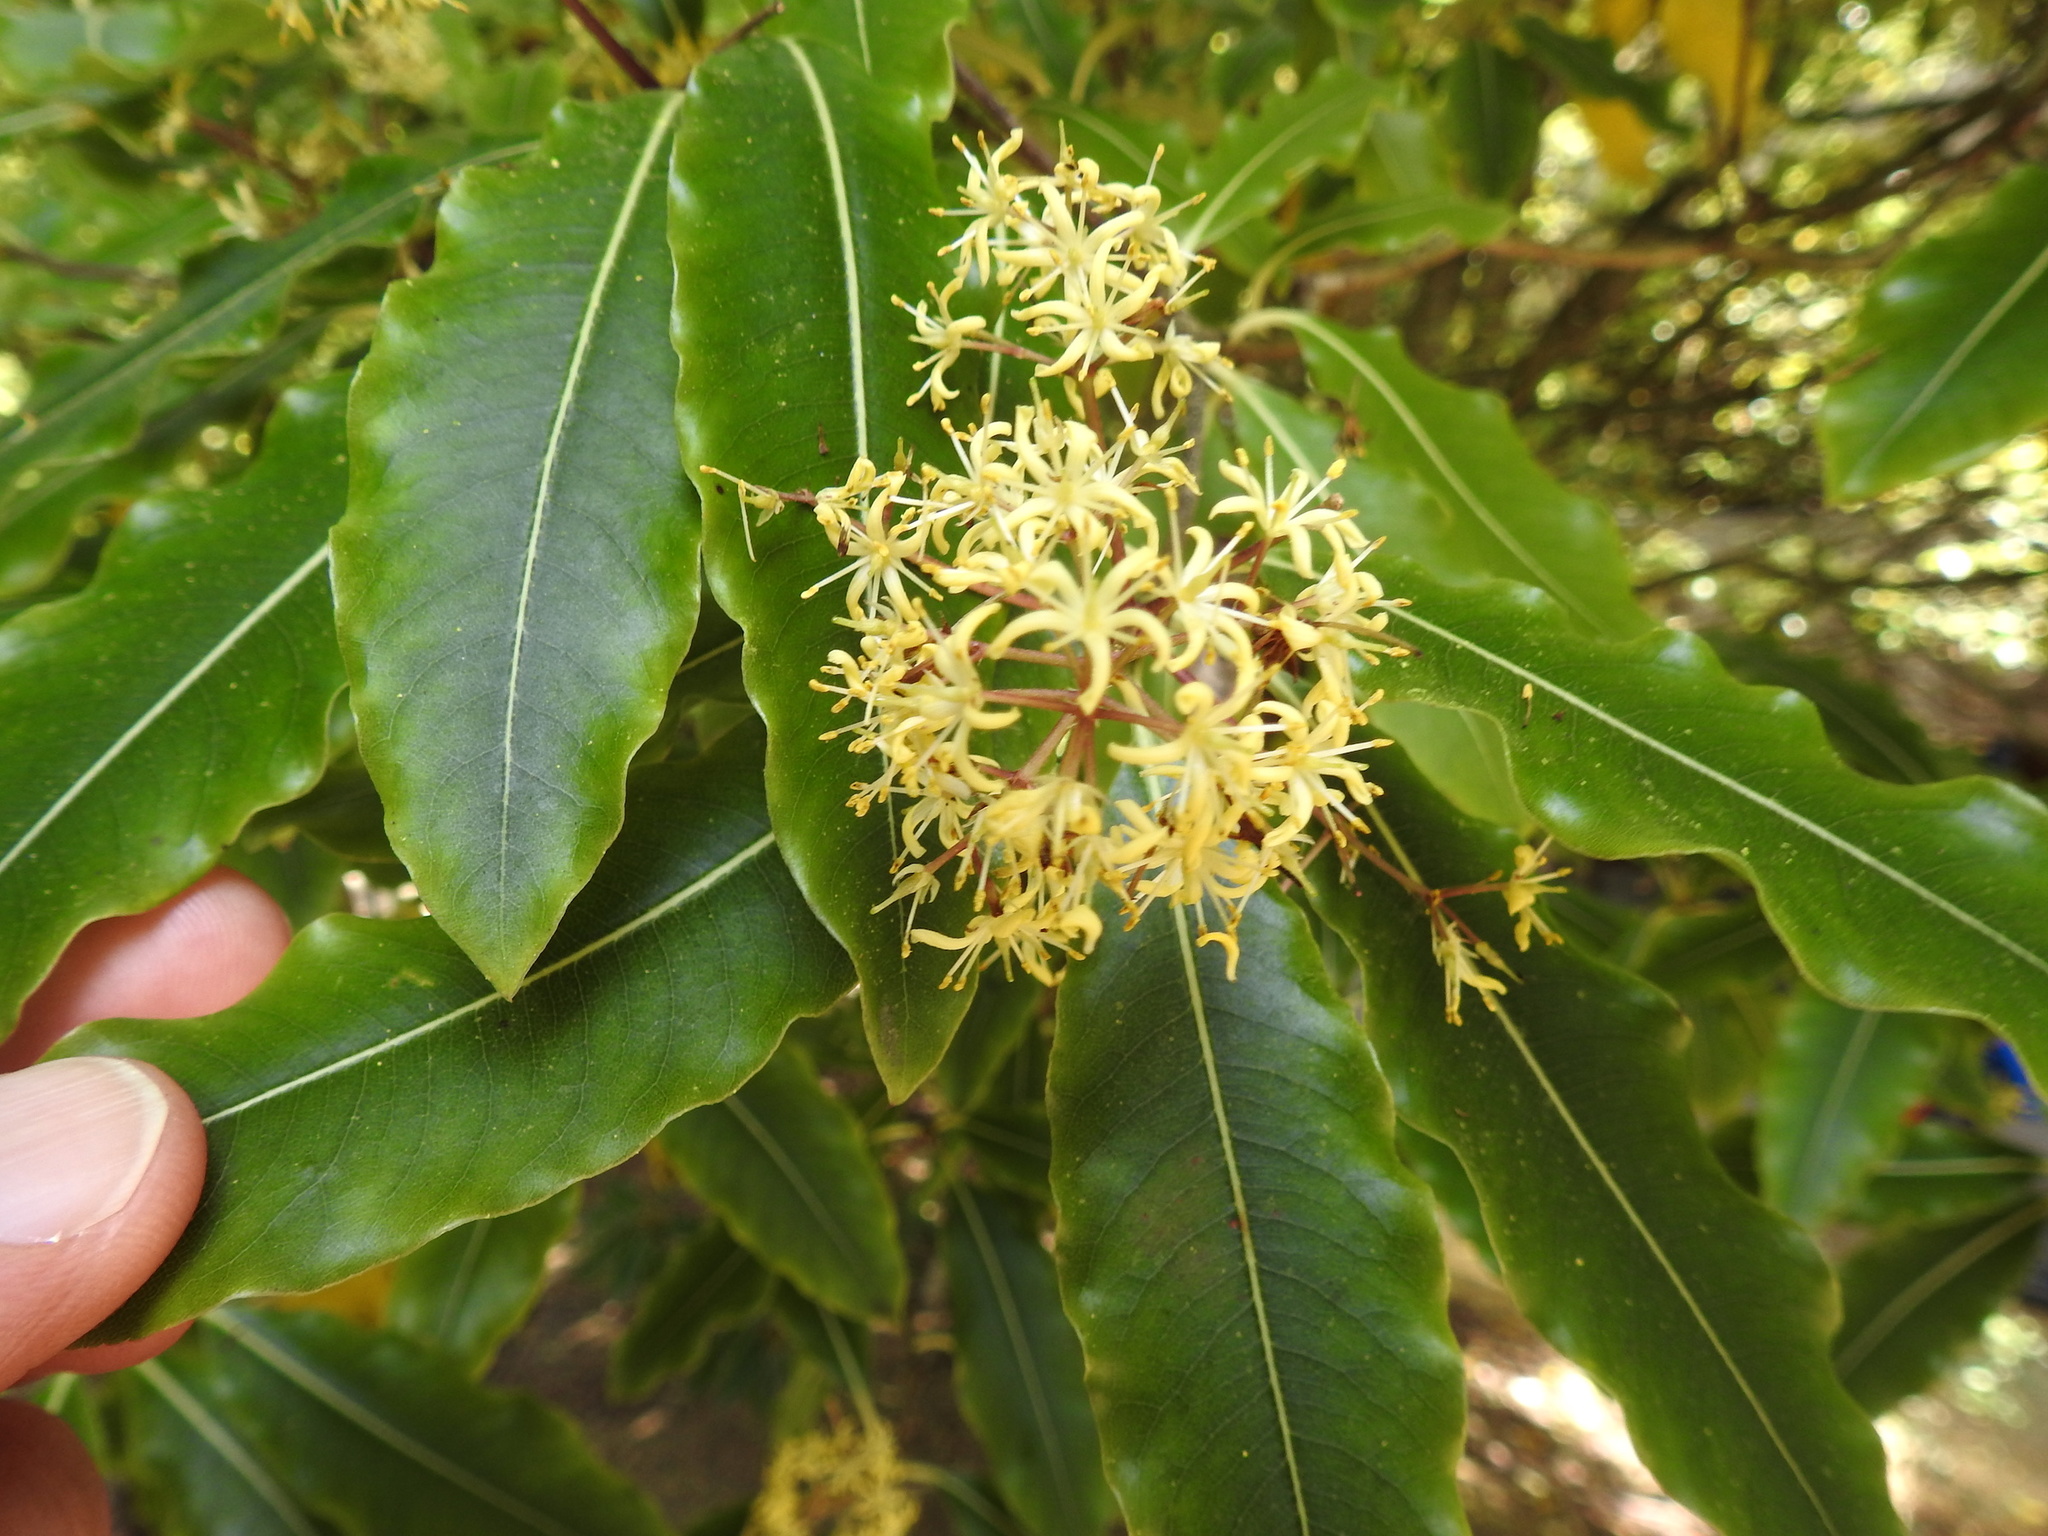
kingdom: Plantae
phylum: Tracheophyta
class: Magnoliopsida
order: Apiales
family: Pittosporaceae
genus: Pittosporum
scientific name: Pittosporum eugenioides
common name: Lemonwood
